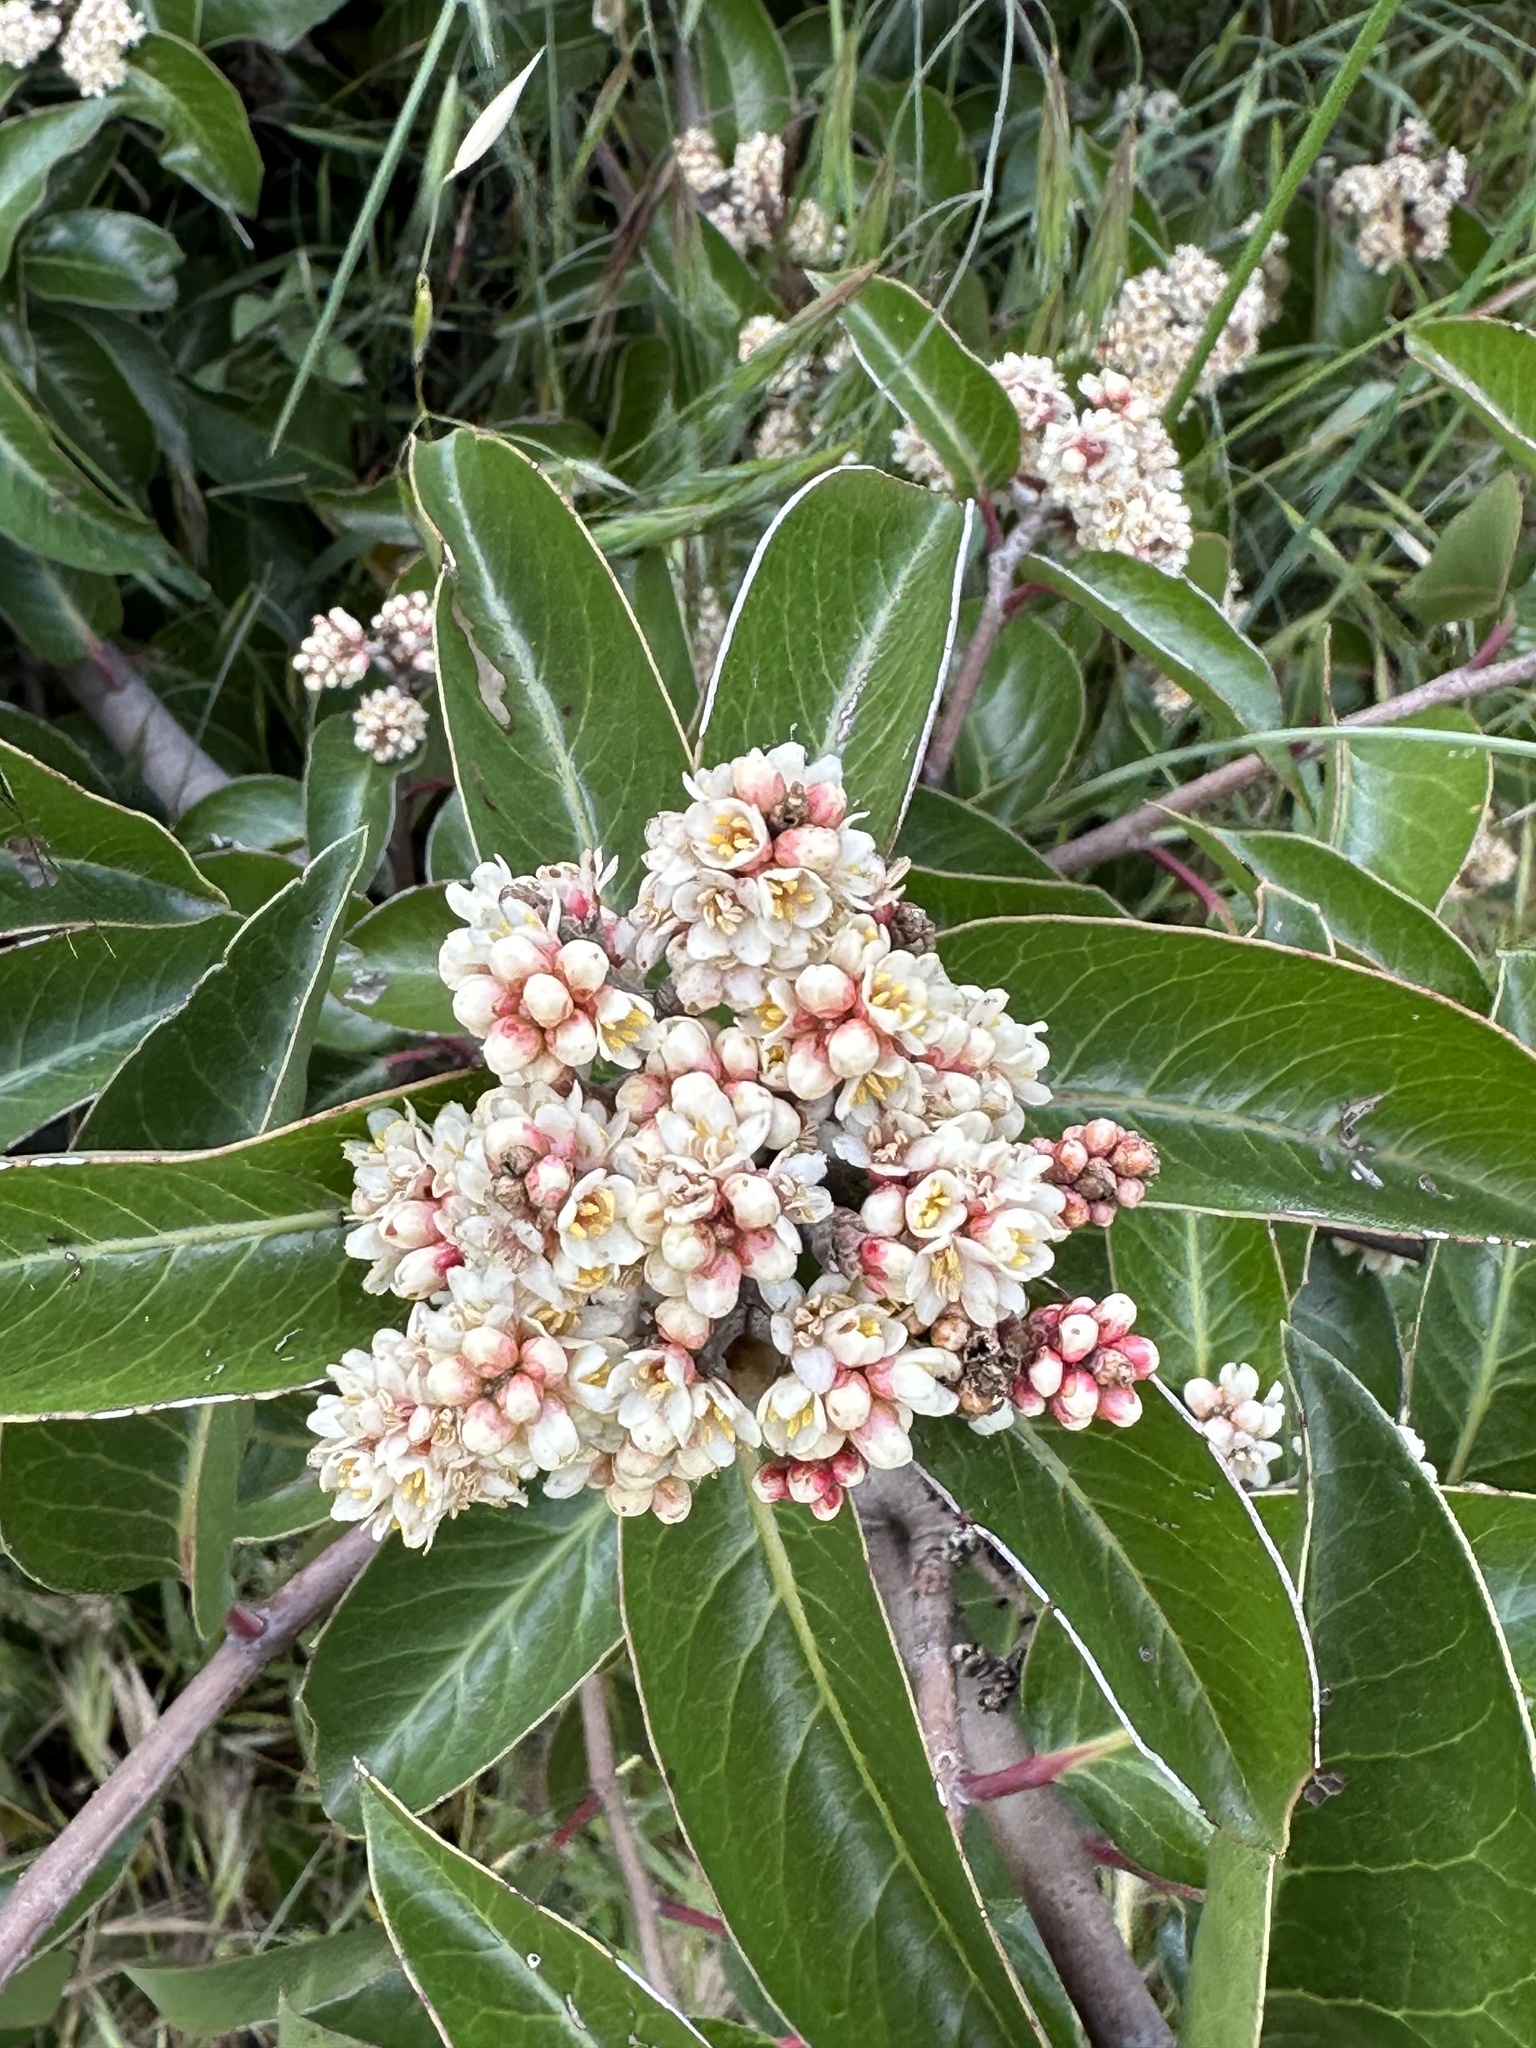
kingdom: Plantae
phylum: Tracheophyta
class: Magnoliopsida
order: Sapindales
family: Anacardiaceae
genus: Rhus
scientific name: Rhus ovata
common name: Sugar sumac
